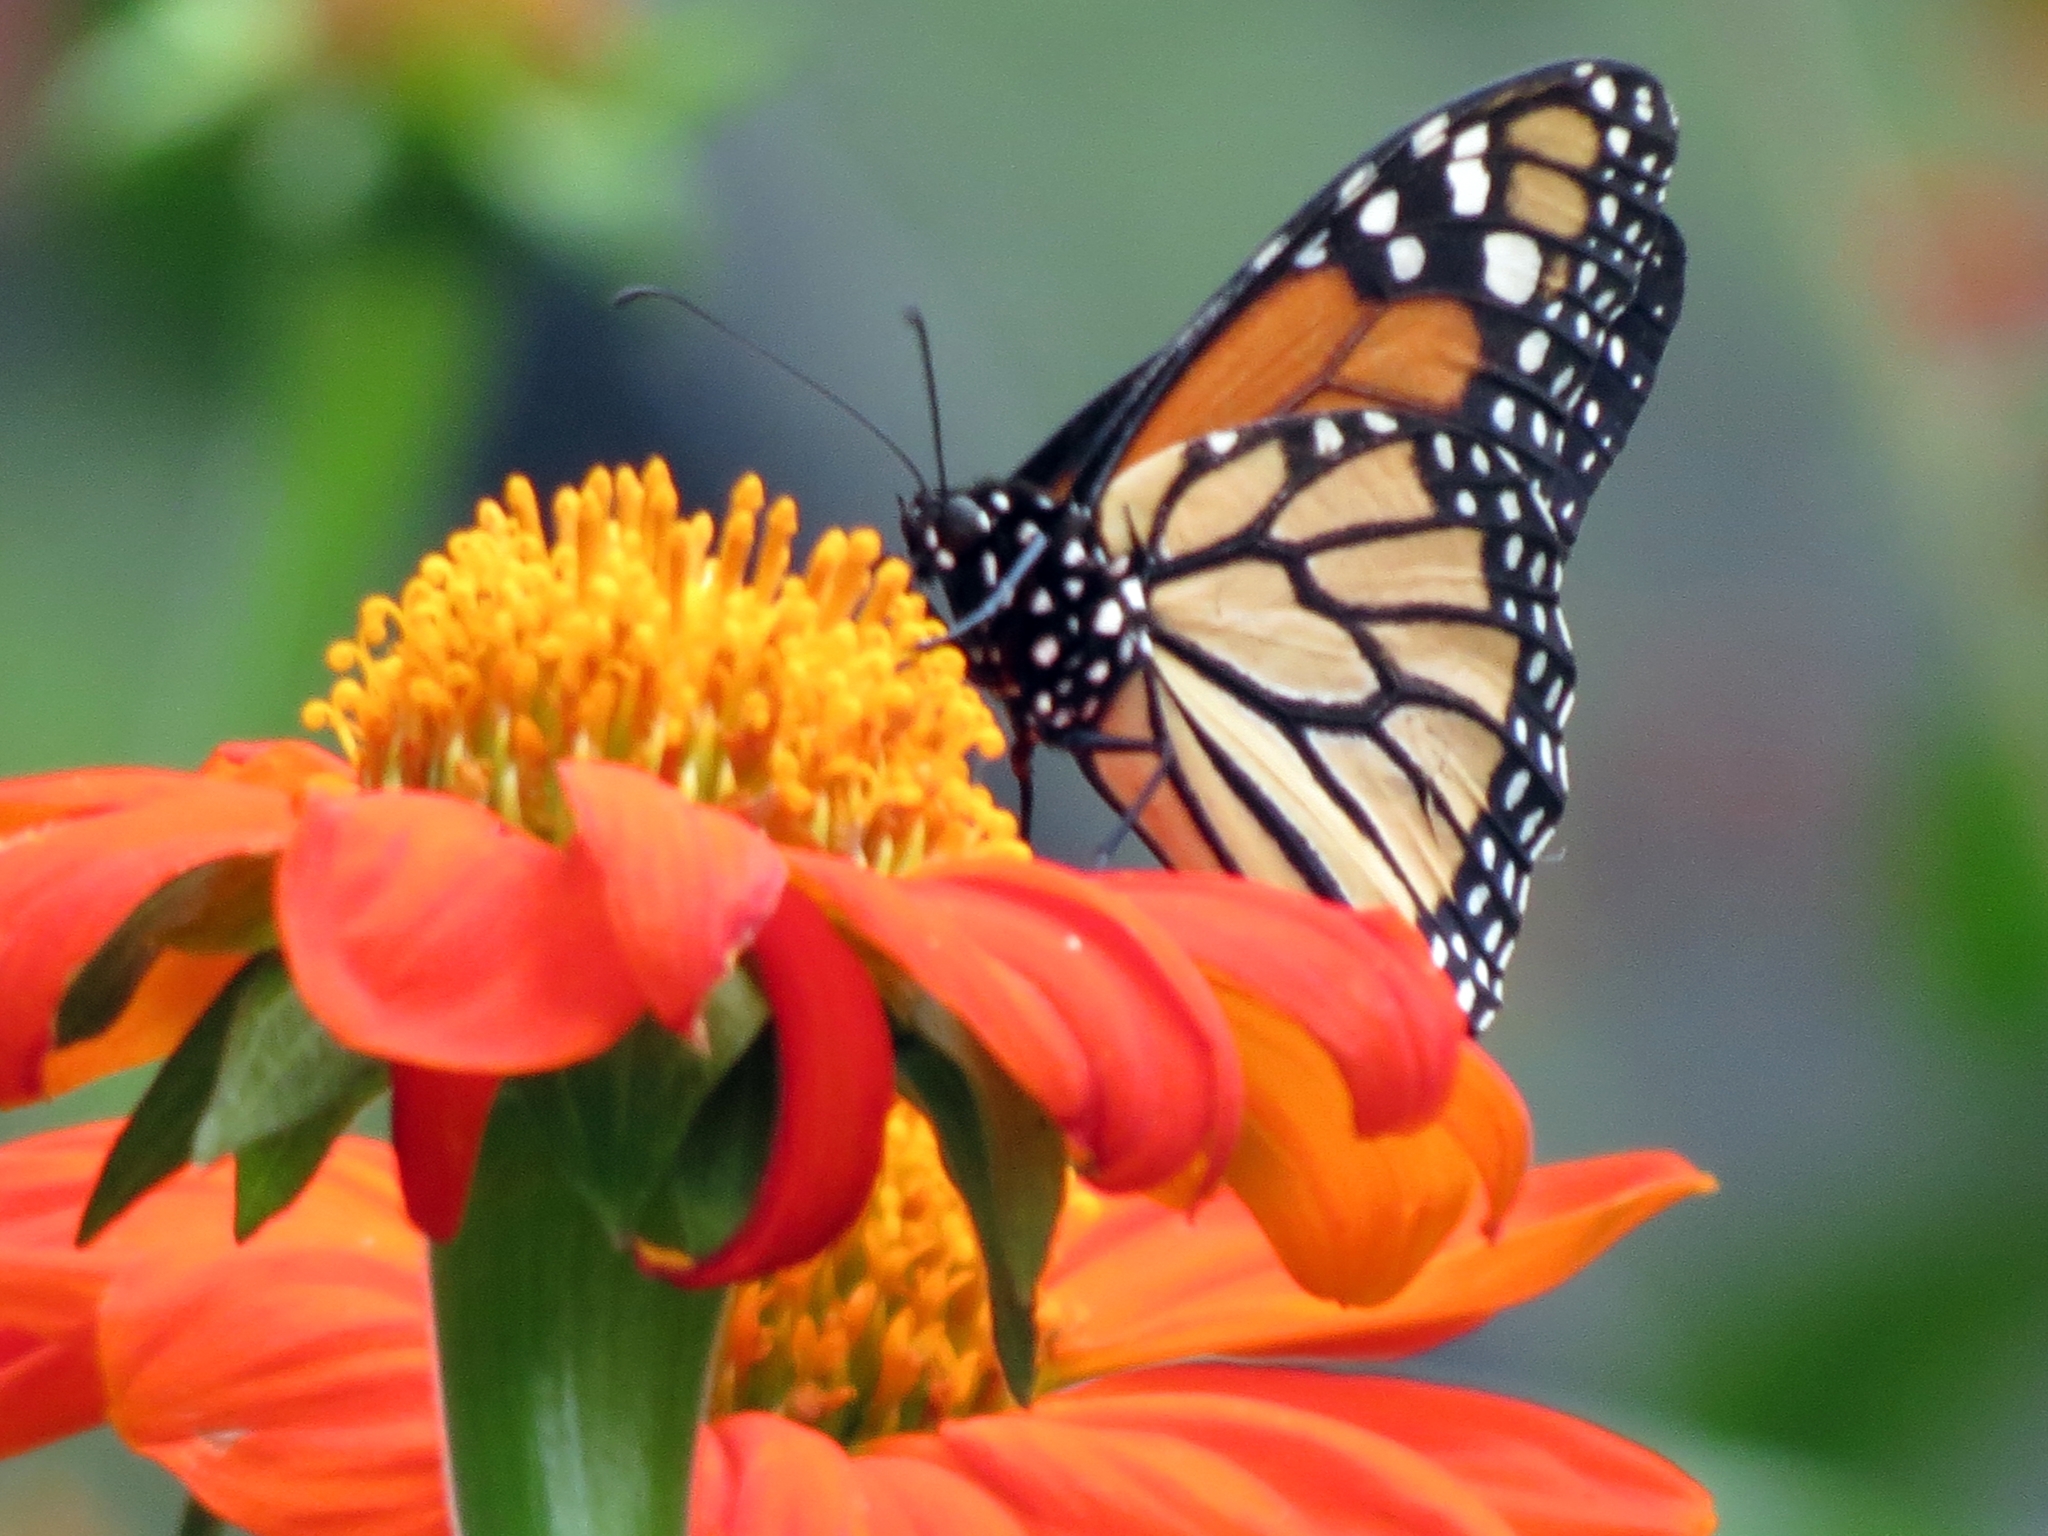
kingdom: Animalia
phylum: Arthropoda
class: Insecta
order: Lepidoptera
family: Nymphalidae
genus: Danaus
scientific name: Danaus plexippus
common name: Monarch
